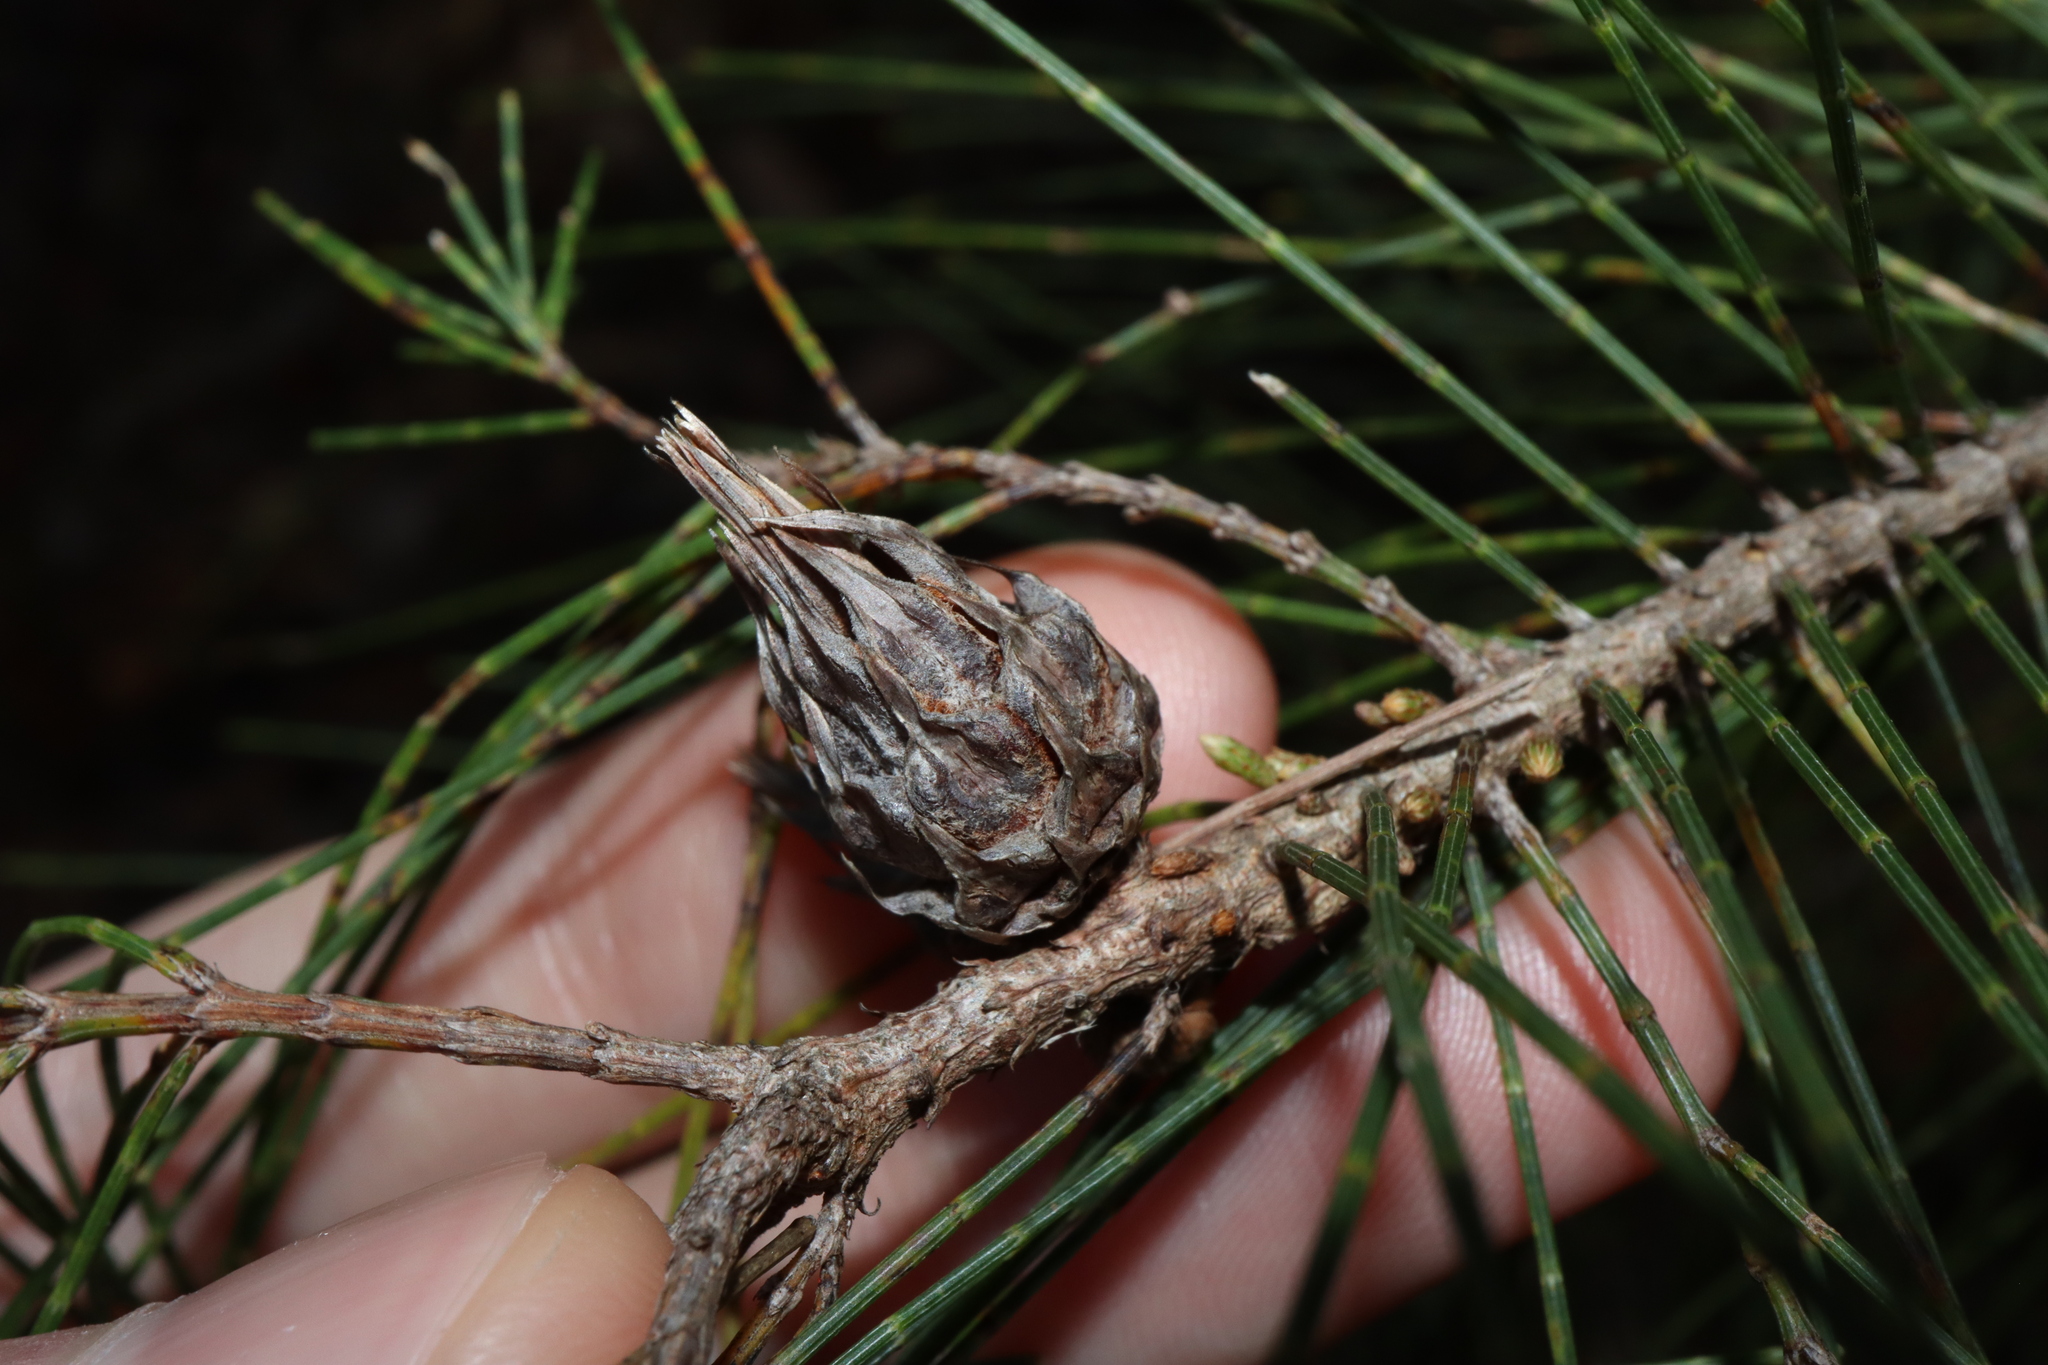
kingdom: Animalia
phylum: Arthropoda
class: Insecta
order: Hemiptera
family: Eriococcidae
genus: Cylindrococcus
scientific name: Cylindrococcus spiniferus
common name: Casuarina gall
